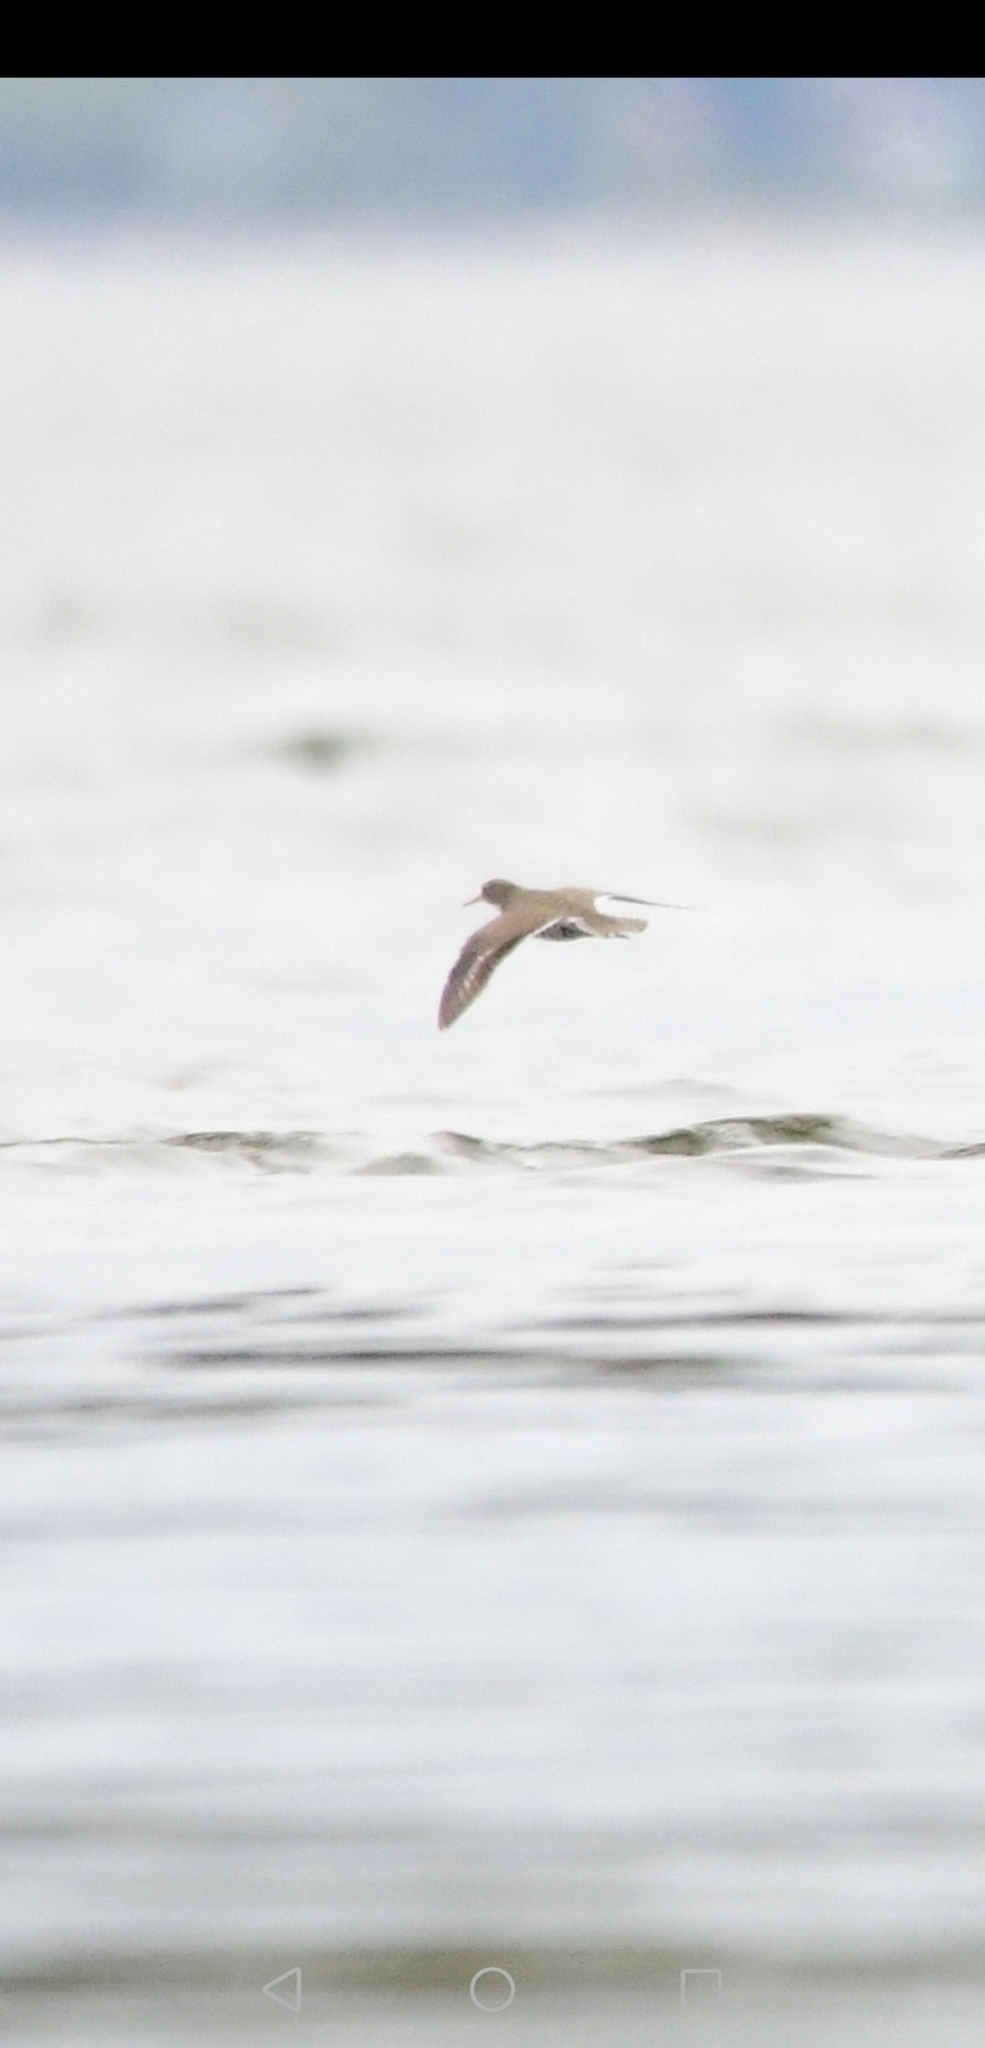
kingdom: Animalia
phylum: Chordata
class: Aves
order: Charadriiformes
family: Scolopacidae
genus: Actitis
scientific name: Actitis macularius
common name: Spotted sandpiper
